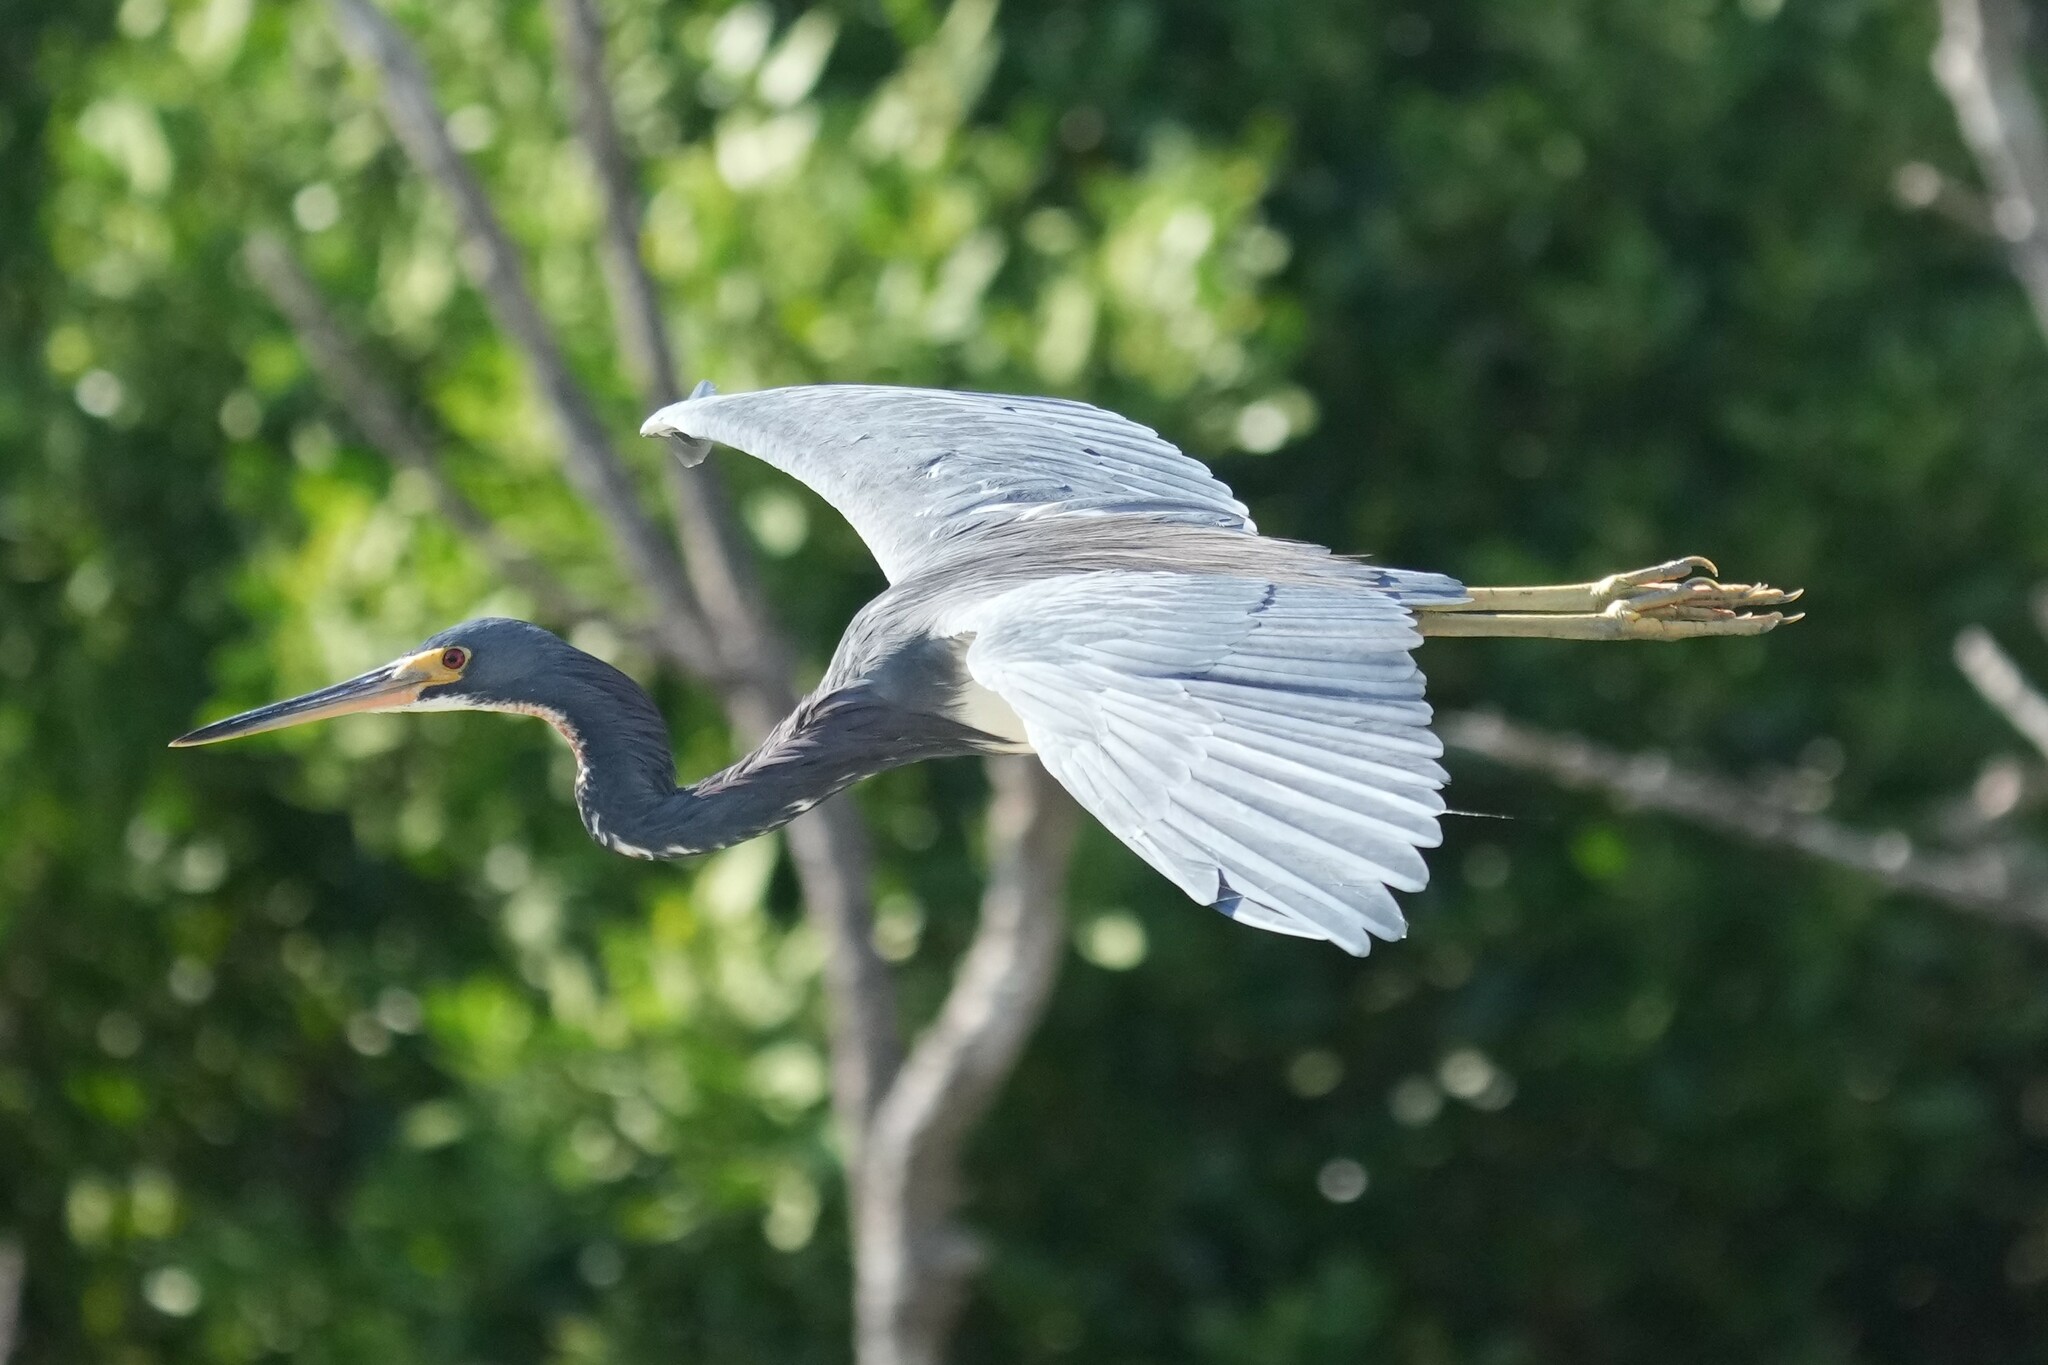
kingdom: Animalia
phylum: Chordata
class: Aves
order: Pelecaniformes
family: Ardeidae
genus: Egretta
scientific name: Egretta tricolor
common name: Tricolored heron
